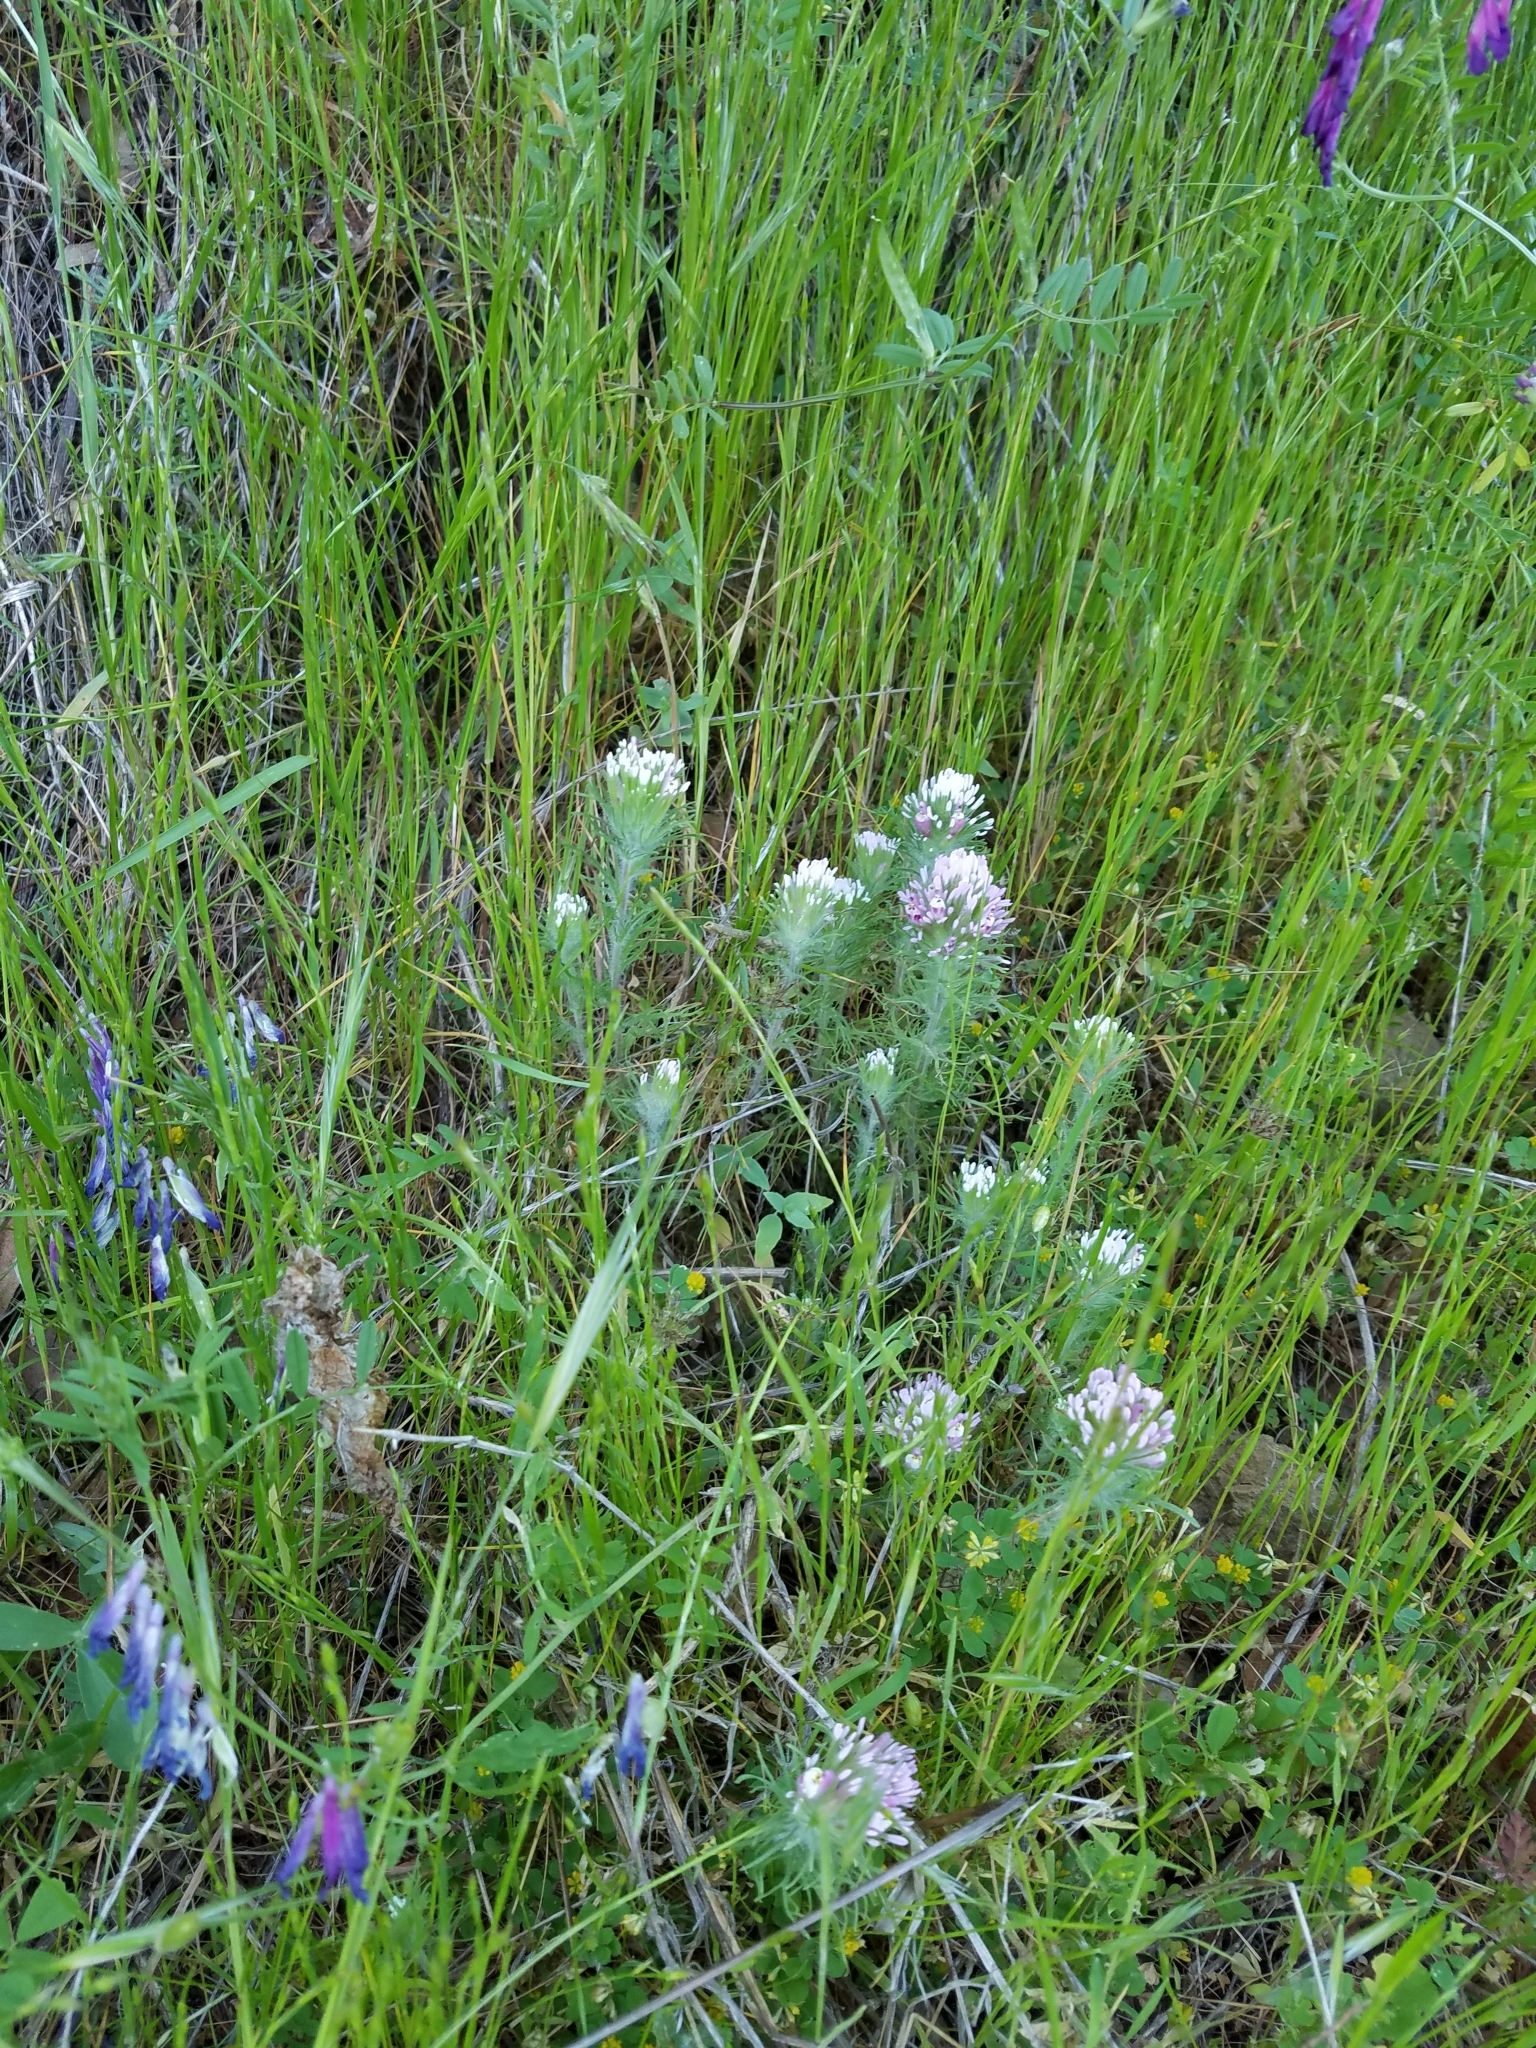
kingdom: Plantae
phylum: Tracheophyta
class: Magnoliopsida
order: Lamiales
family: Orobanchaceae
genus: Castilleja
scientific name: Castilleja exserta
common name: Purple owl-clover
